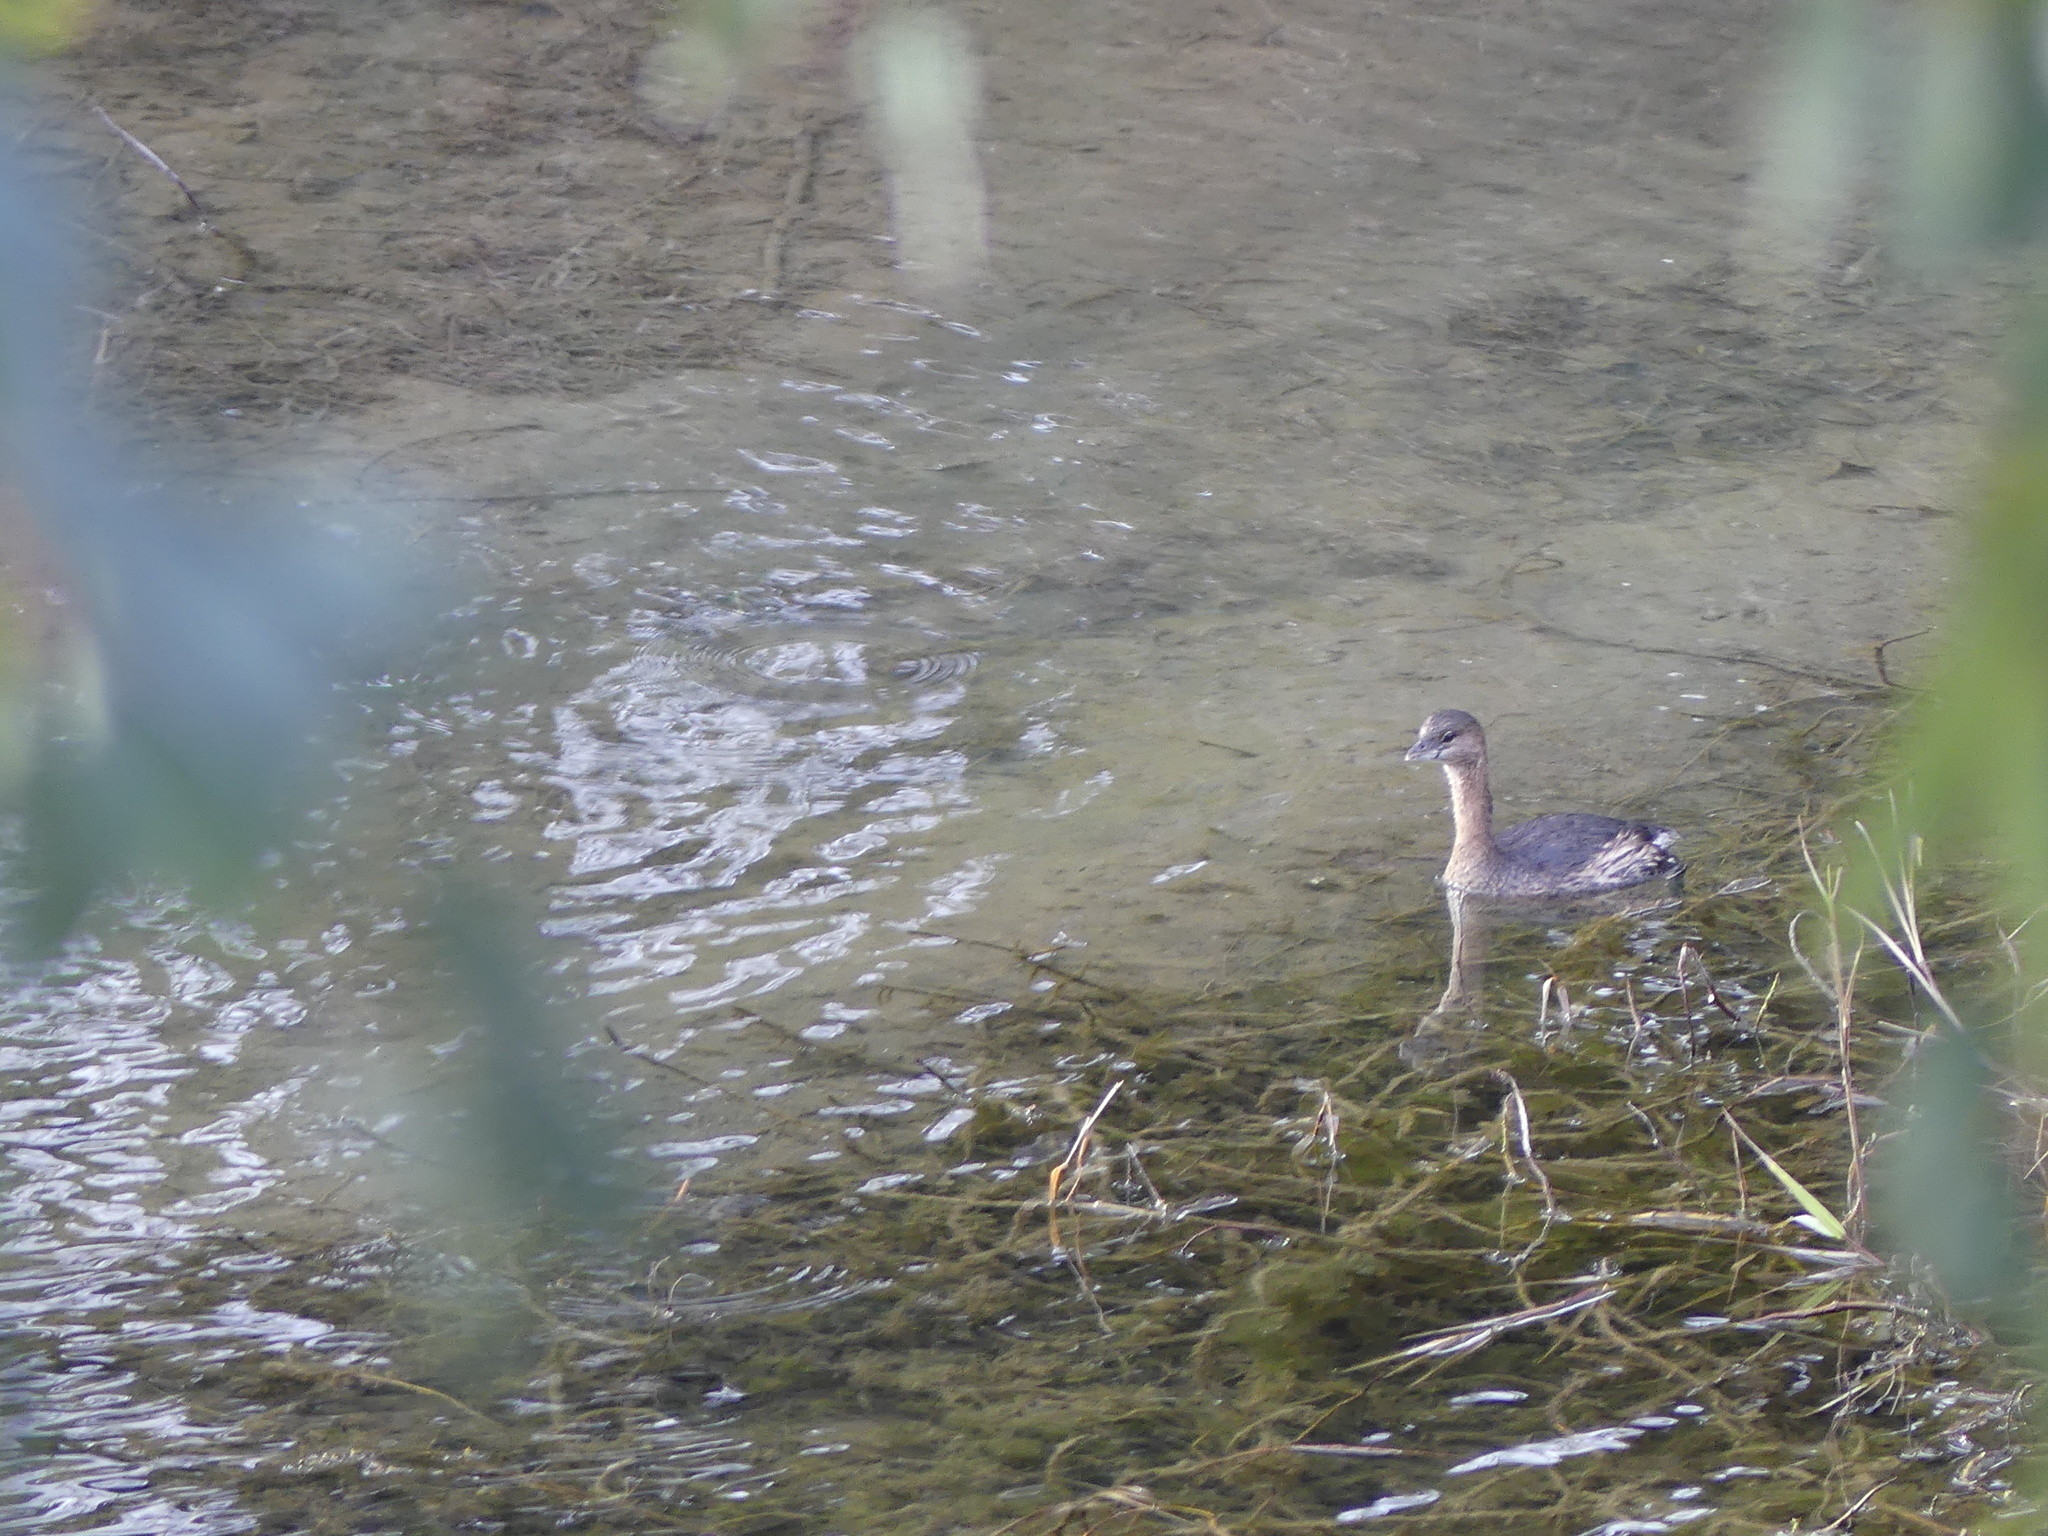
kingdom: Animalia
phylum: Chordata
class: Aves
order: Podicipediformes
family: Podicipedidae
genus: Podilymbus
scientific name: Podilymbus podiceps
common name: Pied-billed grebe
